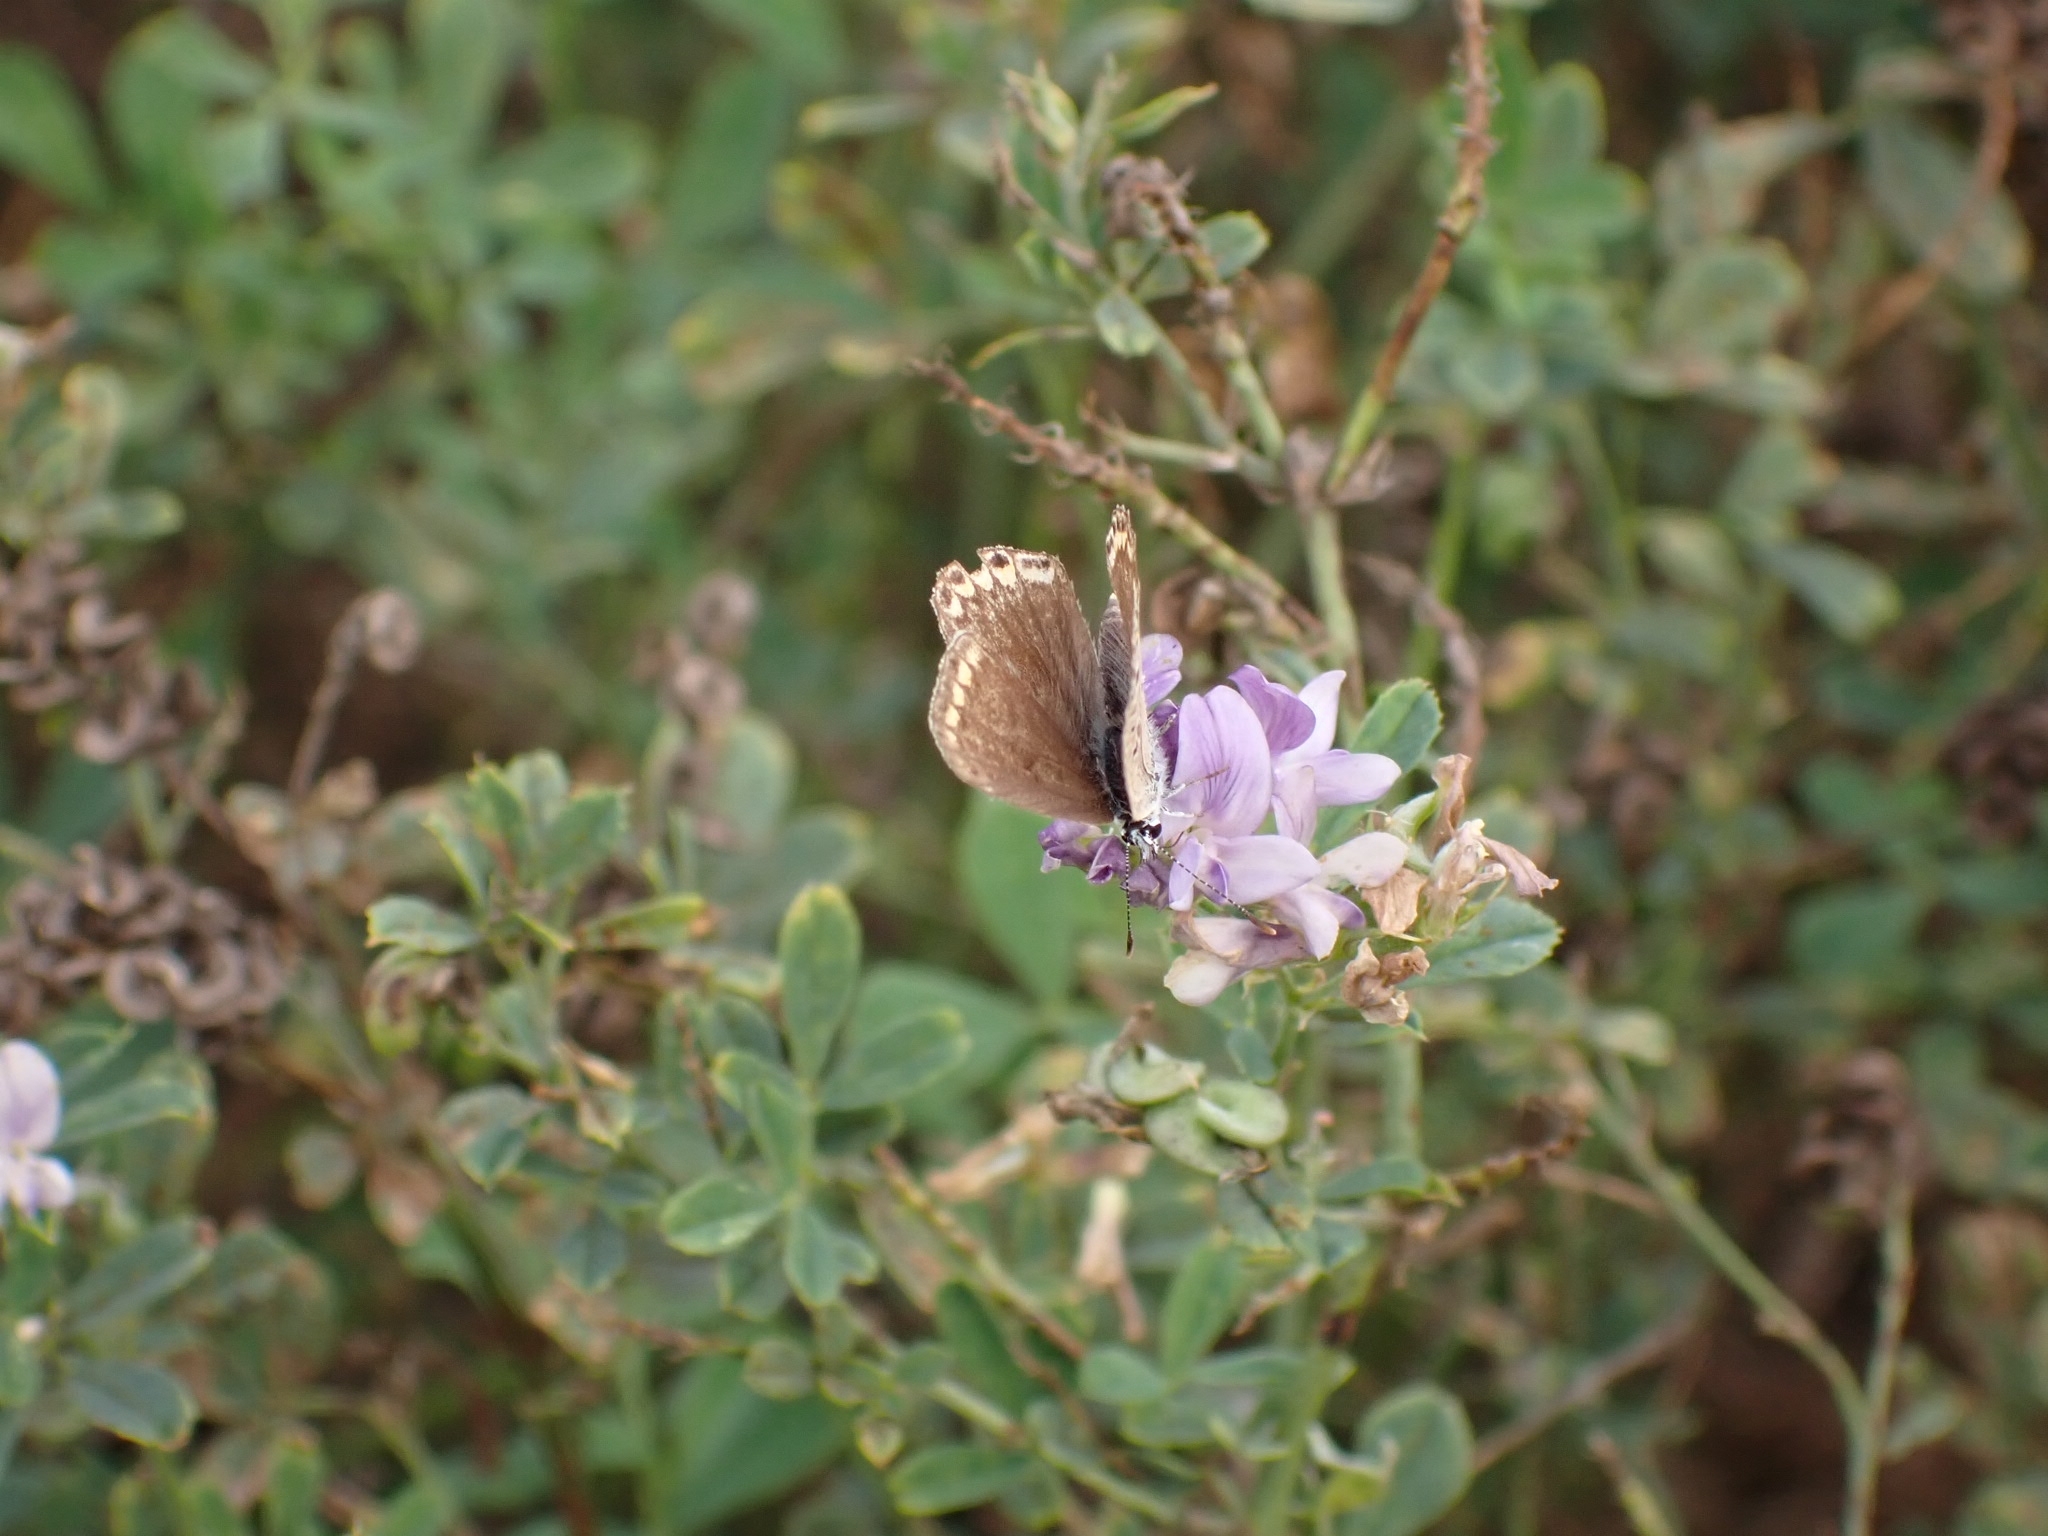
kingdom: Animalia
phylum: Arthropoda
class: Insecta
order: Lepidoptera
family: Lycaenidae
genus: Polyommatus
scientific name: Polyommatus icarus
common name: Common blue
